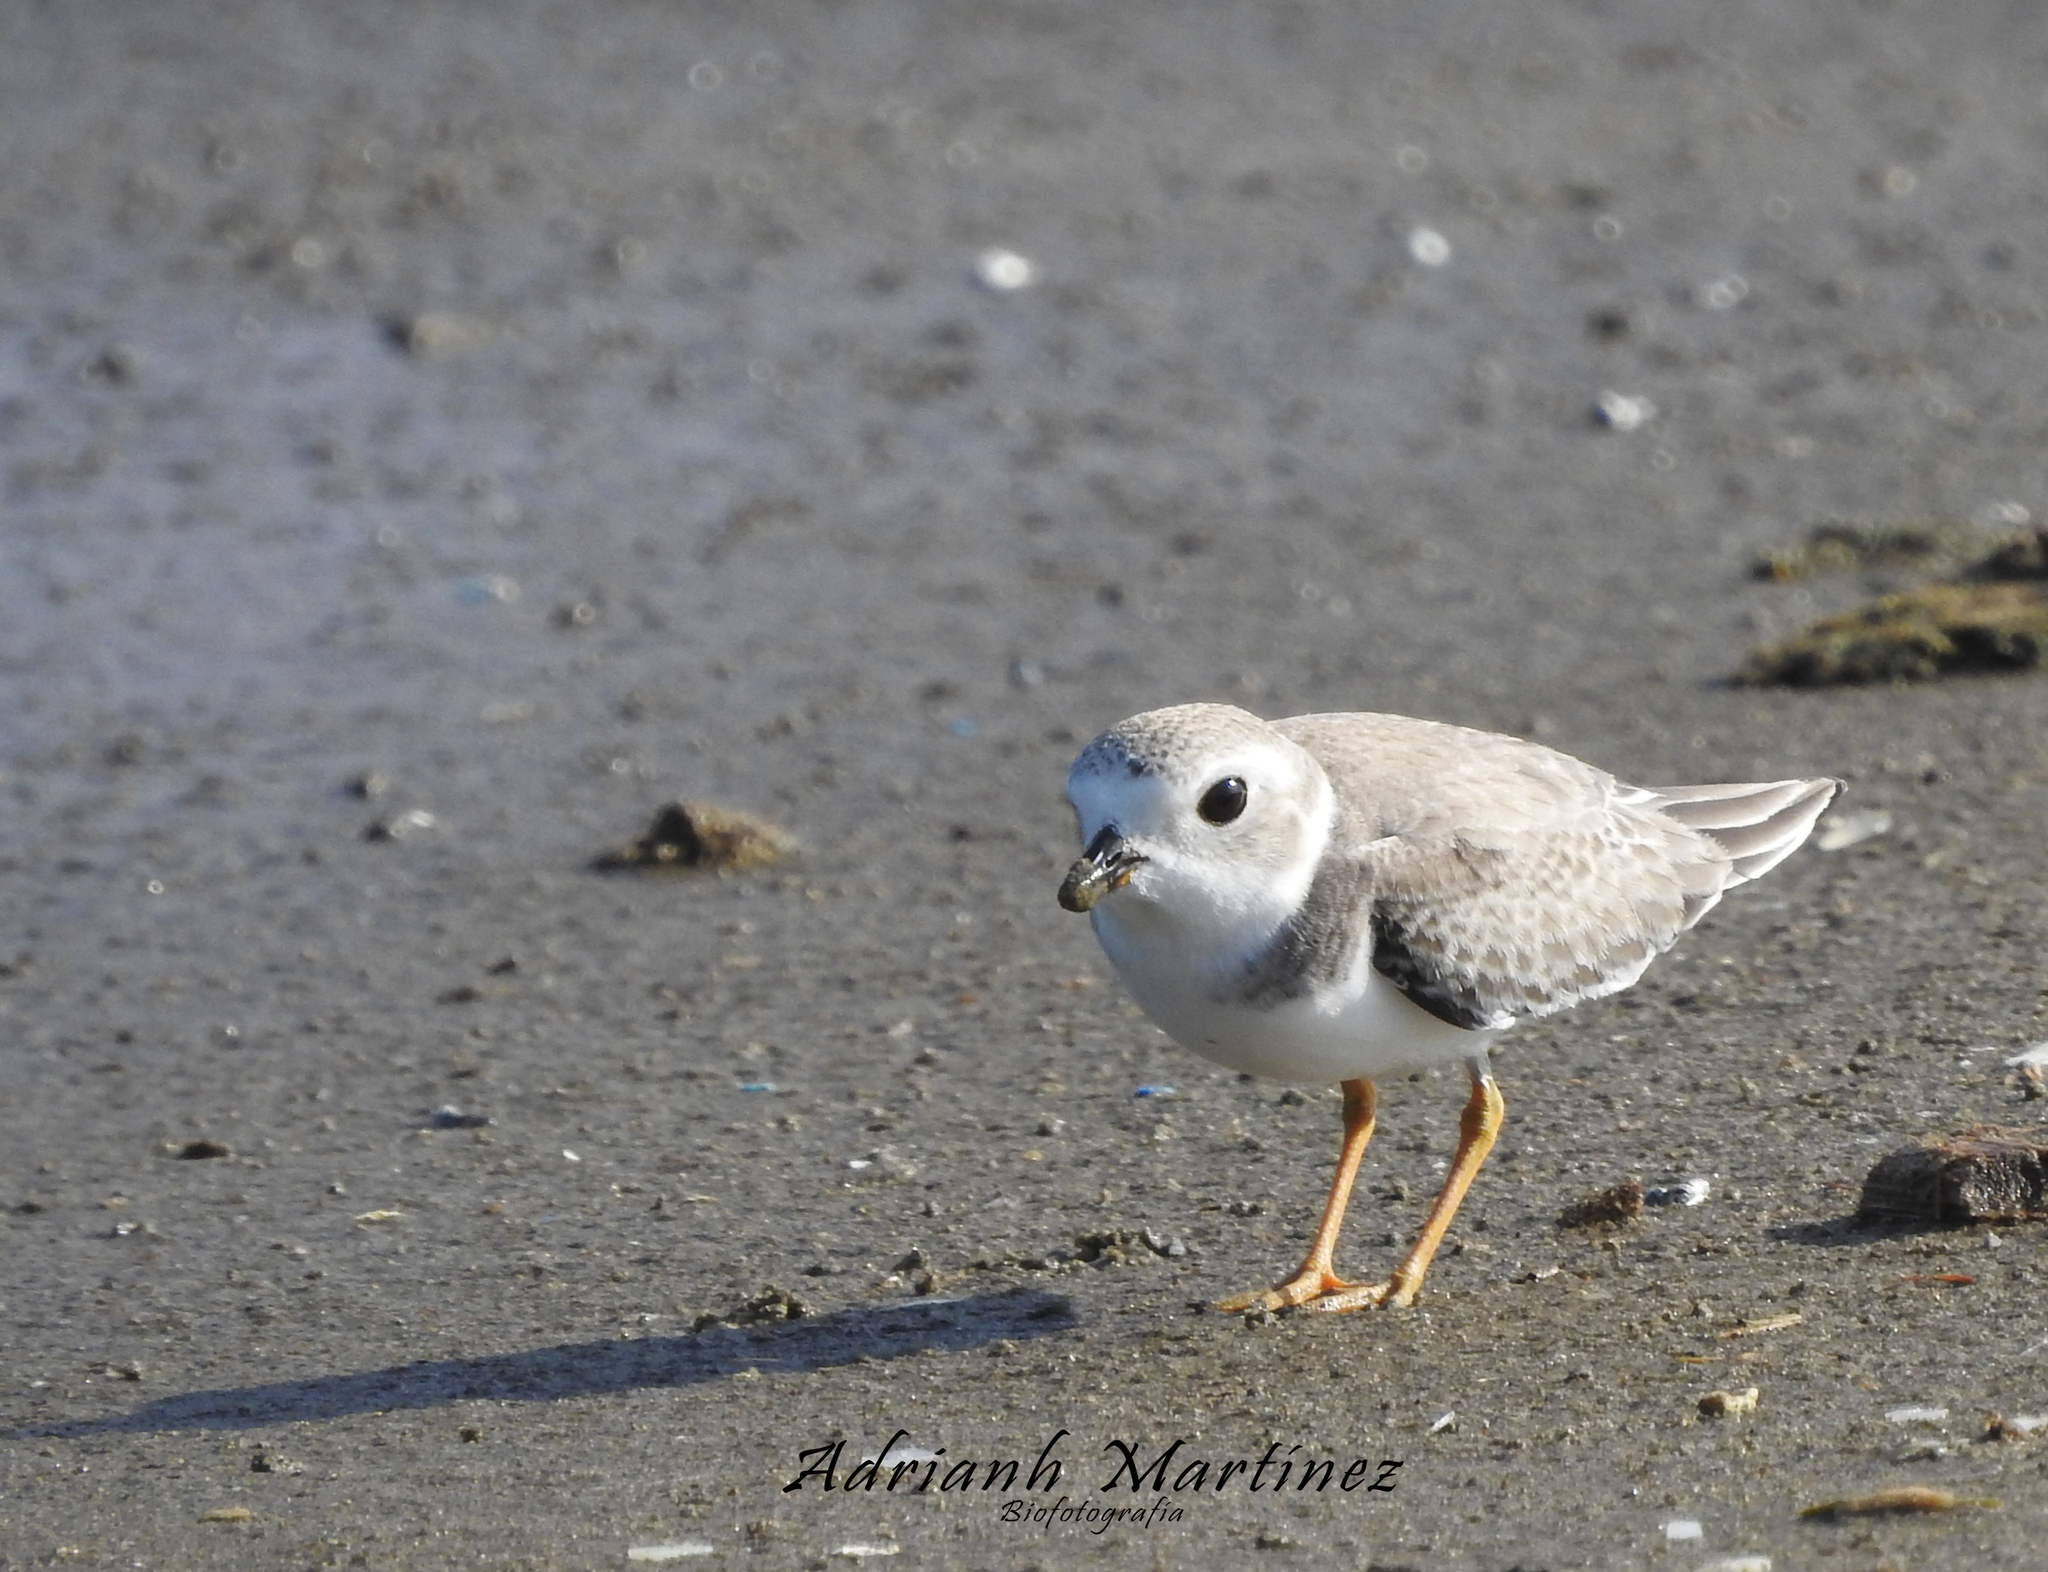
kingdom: Animalia
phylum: Chordata
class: Aves
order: Charadriiformes
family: Charadriidae
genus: Charadrius
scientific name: Charadrius melodus
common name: Piping plover
